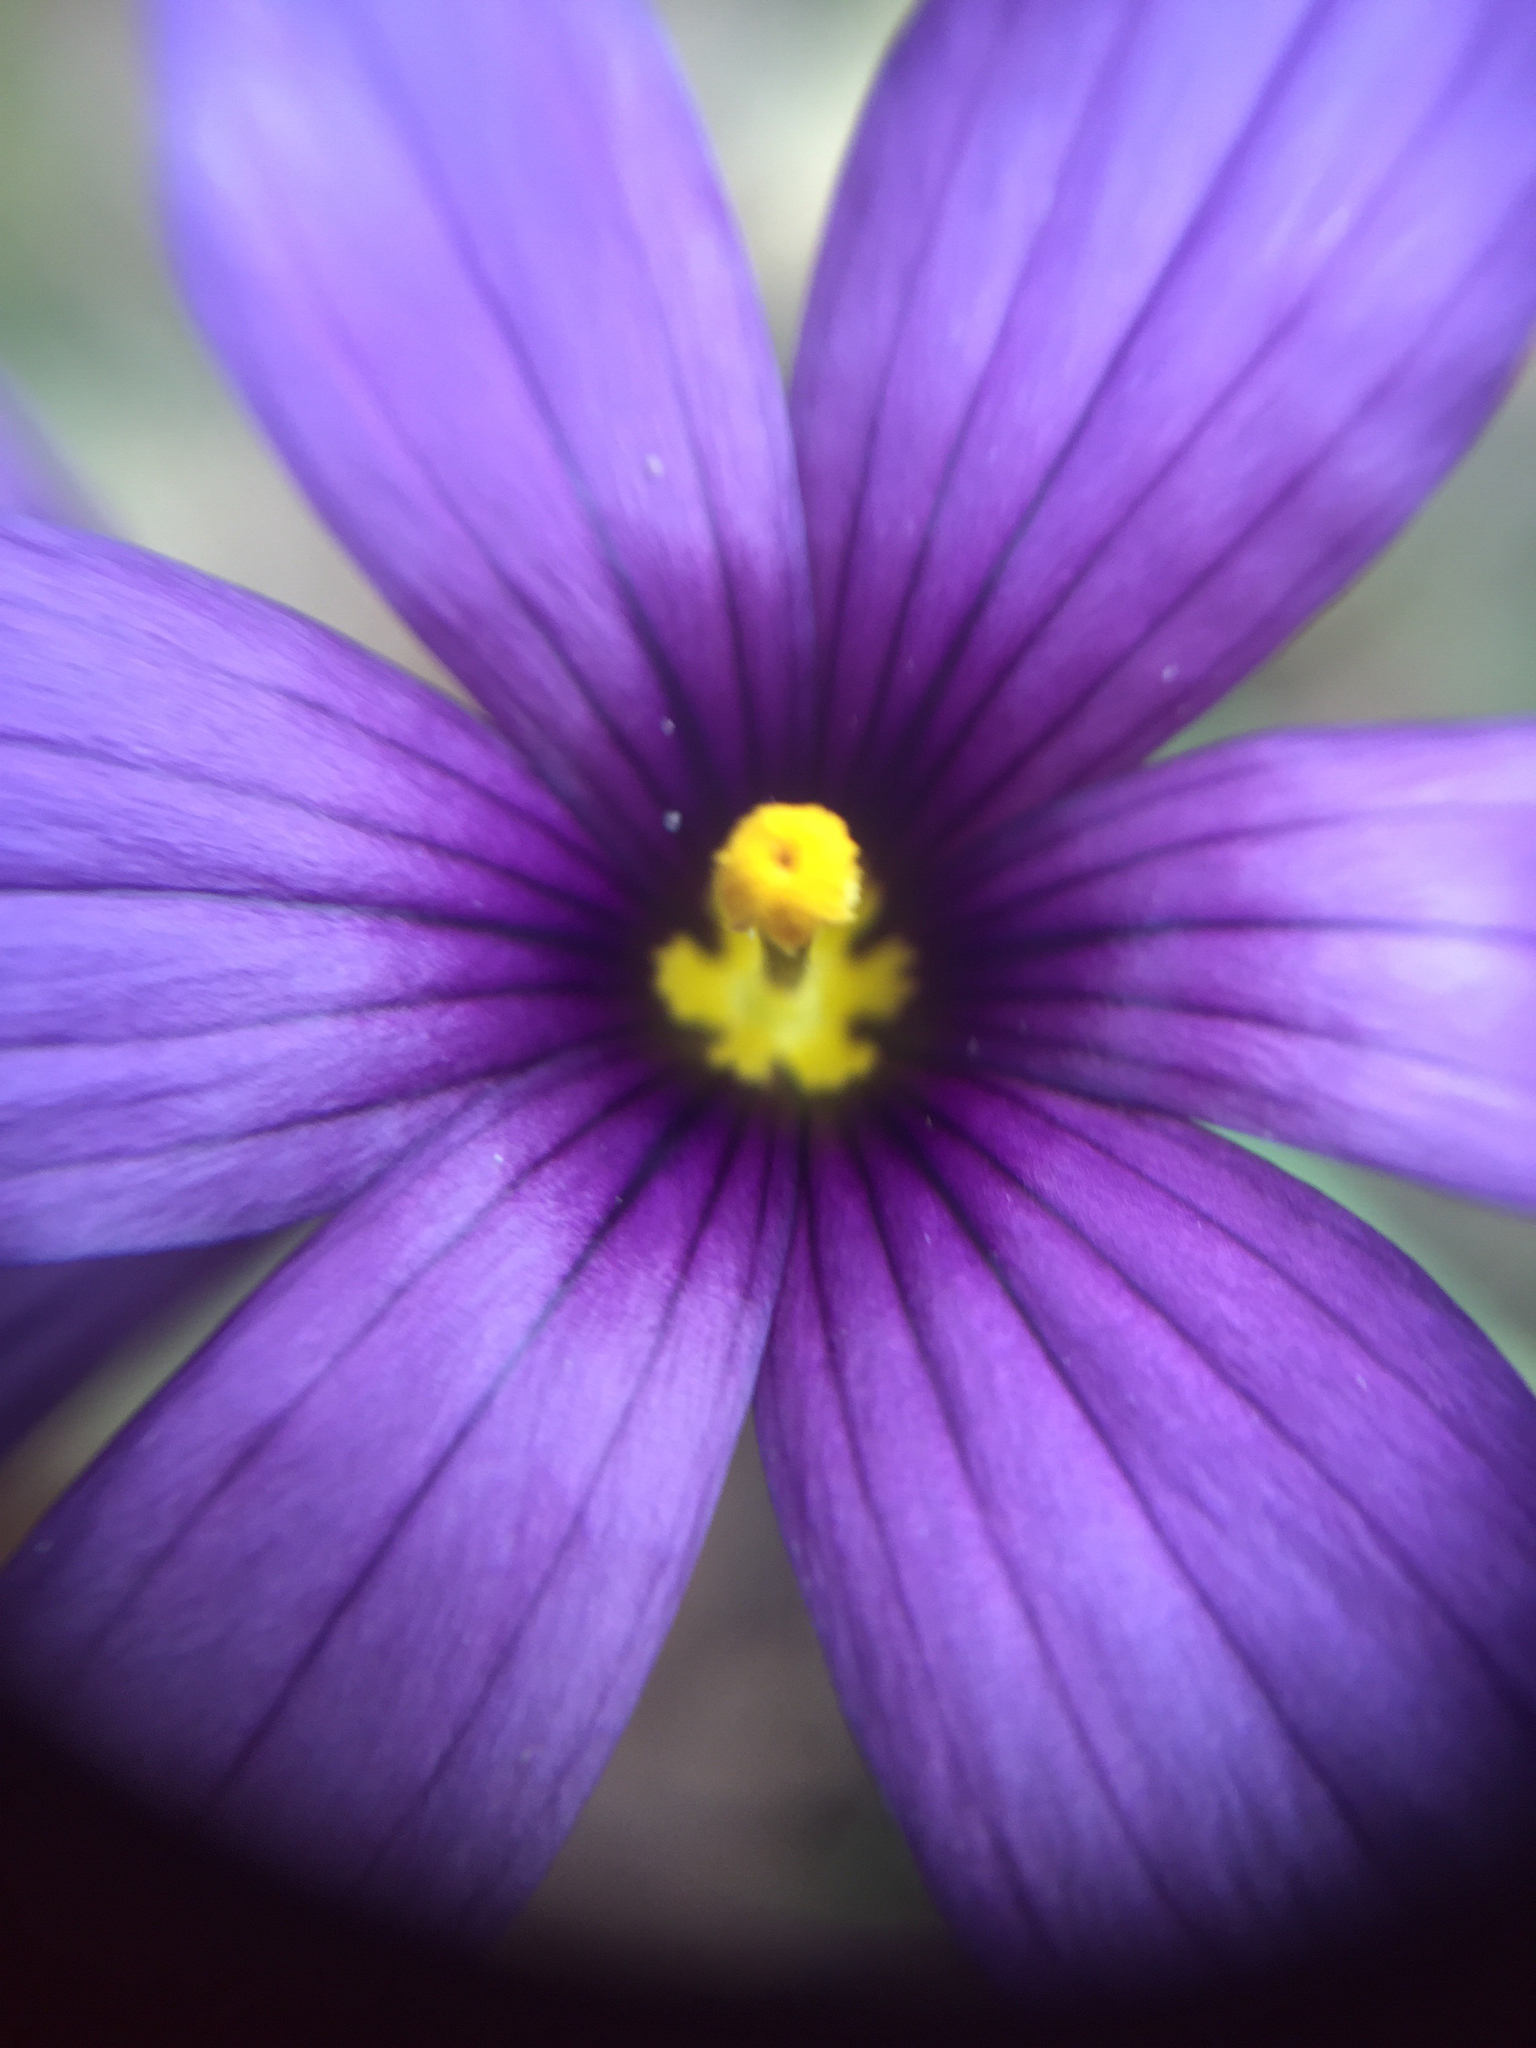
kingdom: Plantae
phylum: Tracheophyta
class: Liliopsida
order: Asparagales
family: Iridaceae
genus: Sisyrinchium
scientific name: Sisyrinchium bellum
